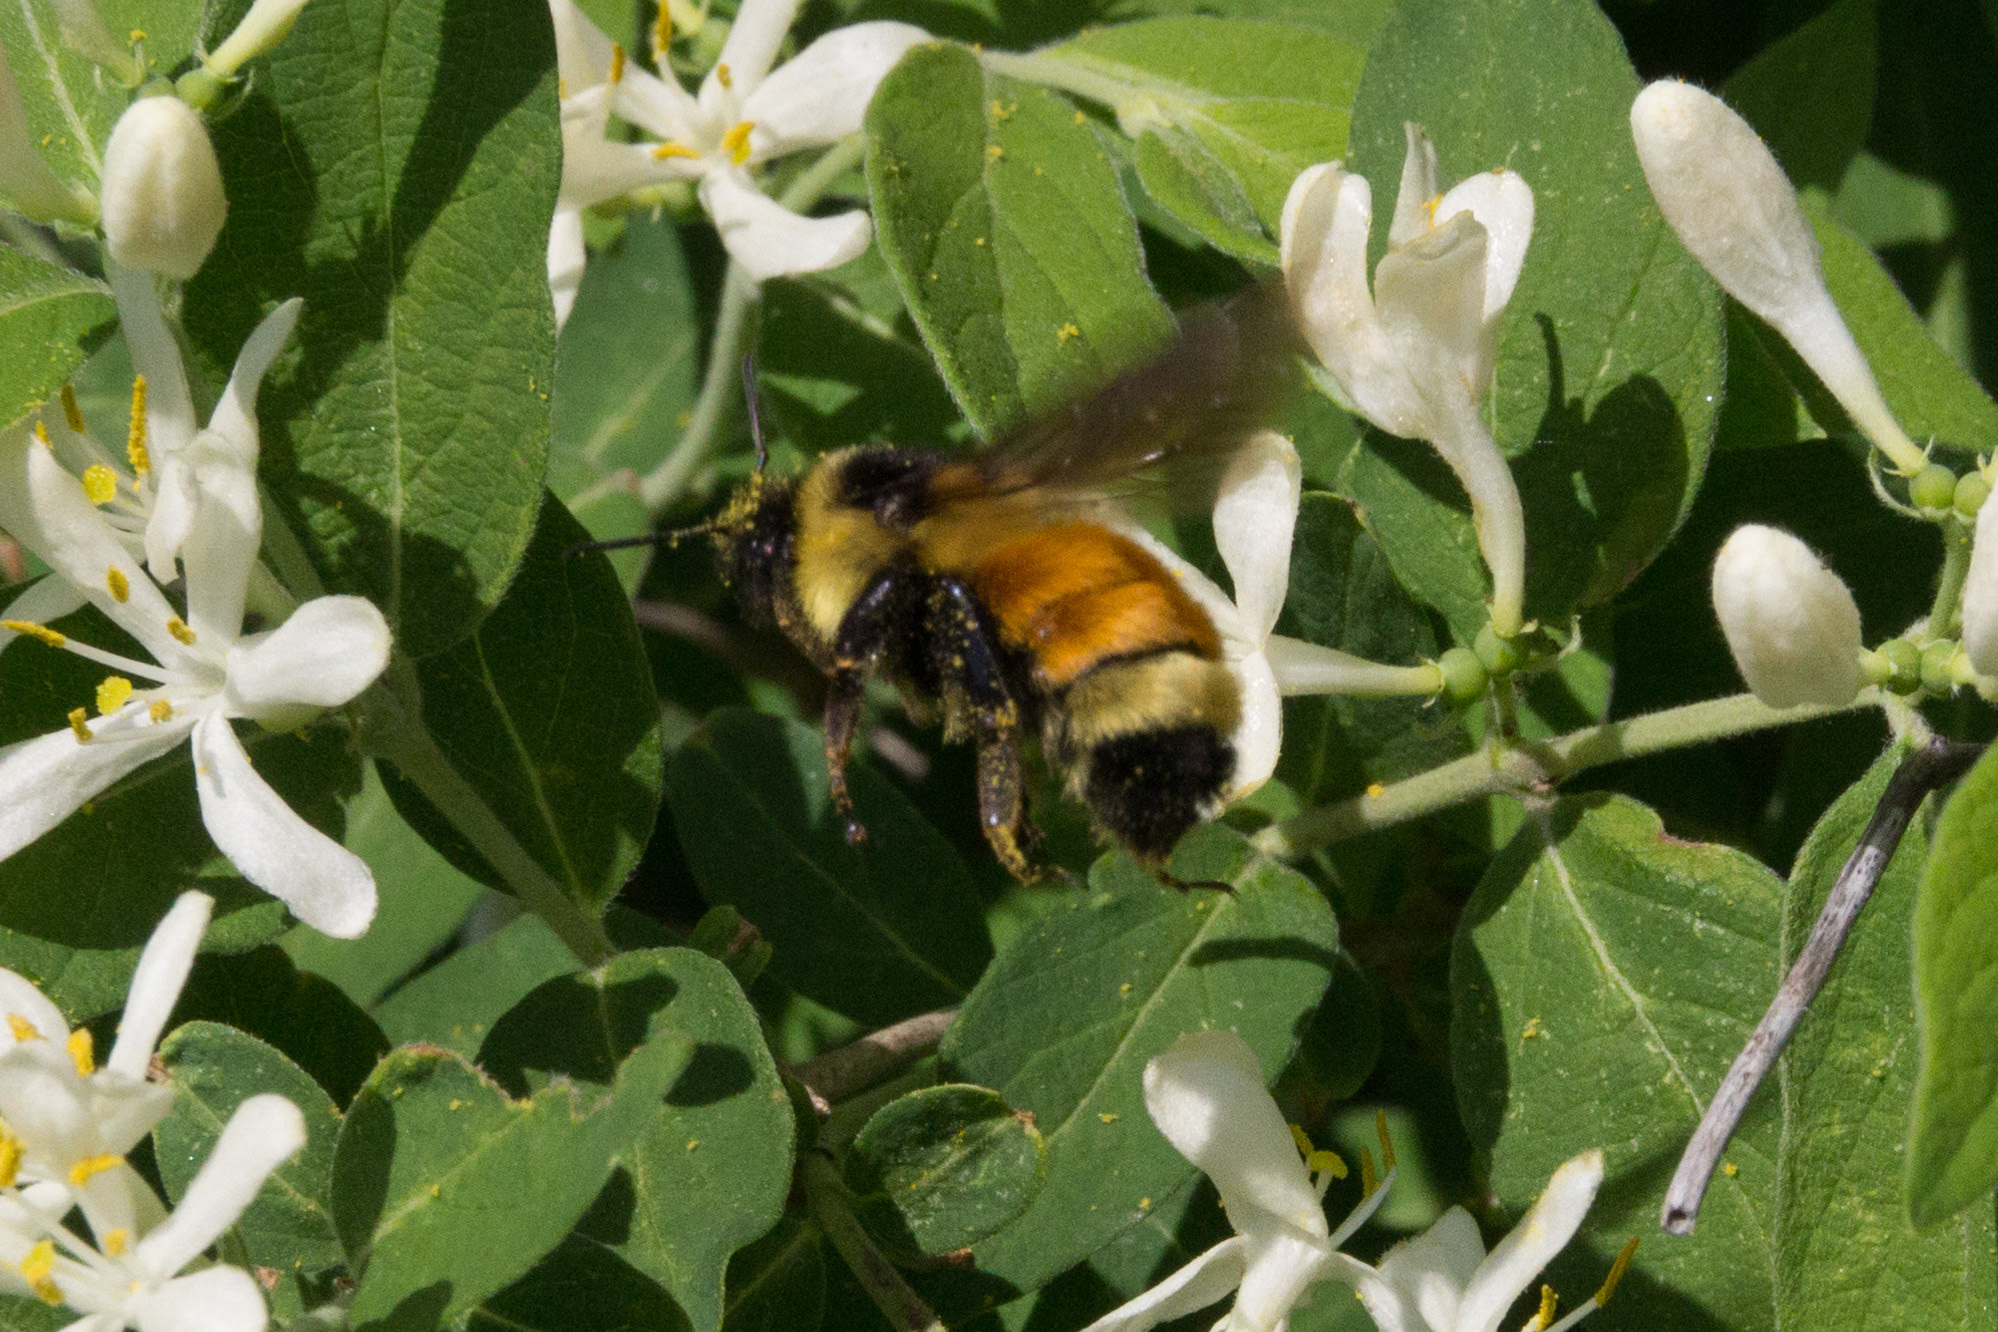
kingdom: Animalia
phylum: Arthropoda
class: Insecta
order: Hymenoptera
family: Apidae
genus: Bombus
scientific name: Bombus ternarius
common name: Tri-colored bumble bee
